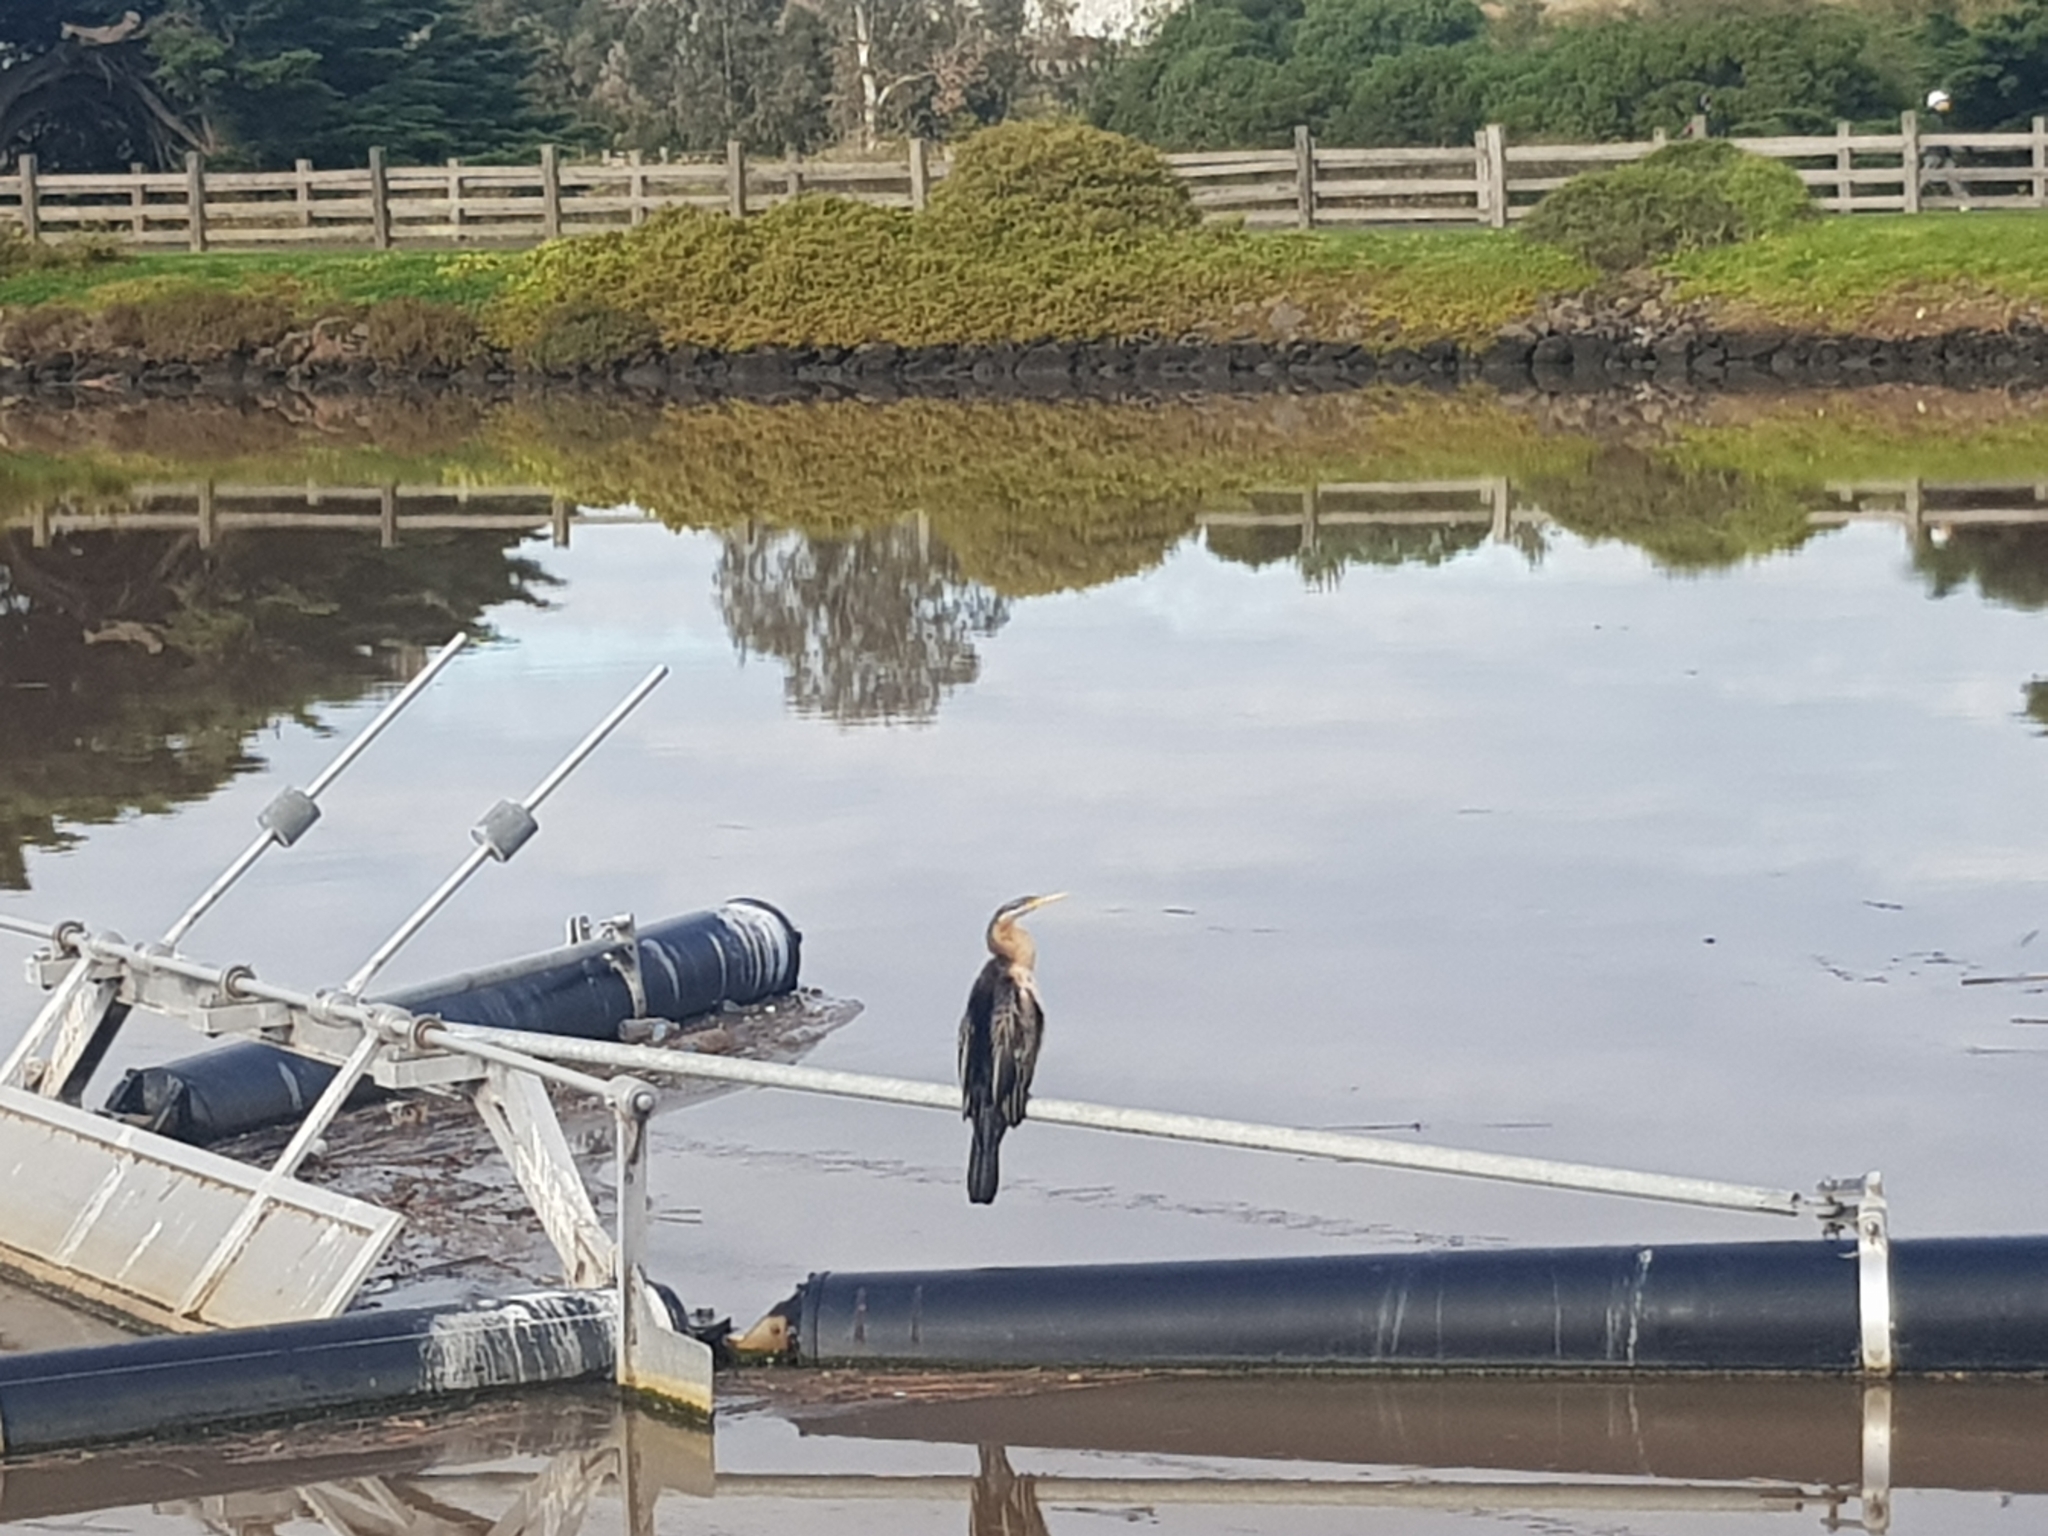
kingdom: Animalia
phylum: Chordata
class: Aves
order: Suliformes
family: Anhingidae
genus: Anhinga
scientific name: Anhinga novaehollandiae
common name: Australasian darter
